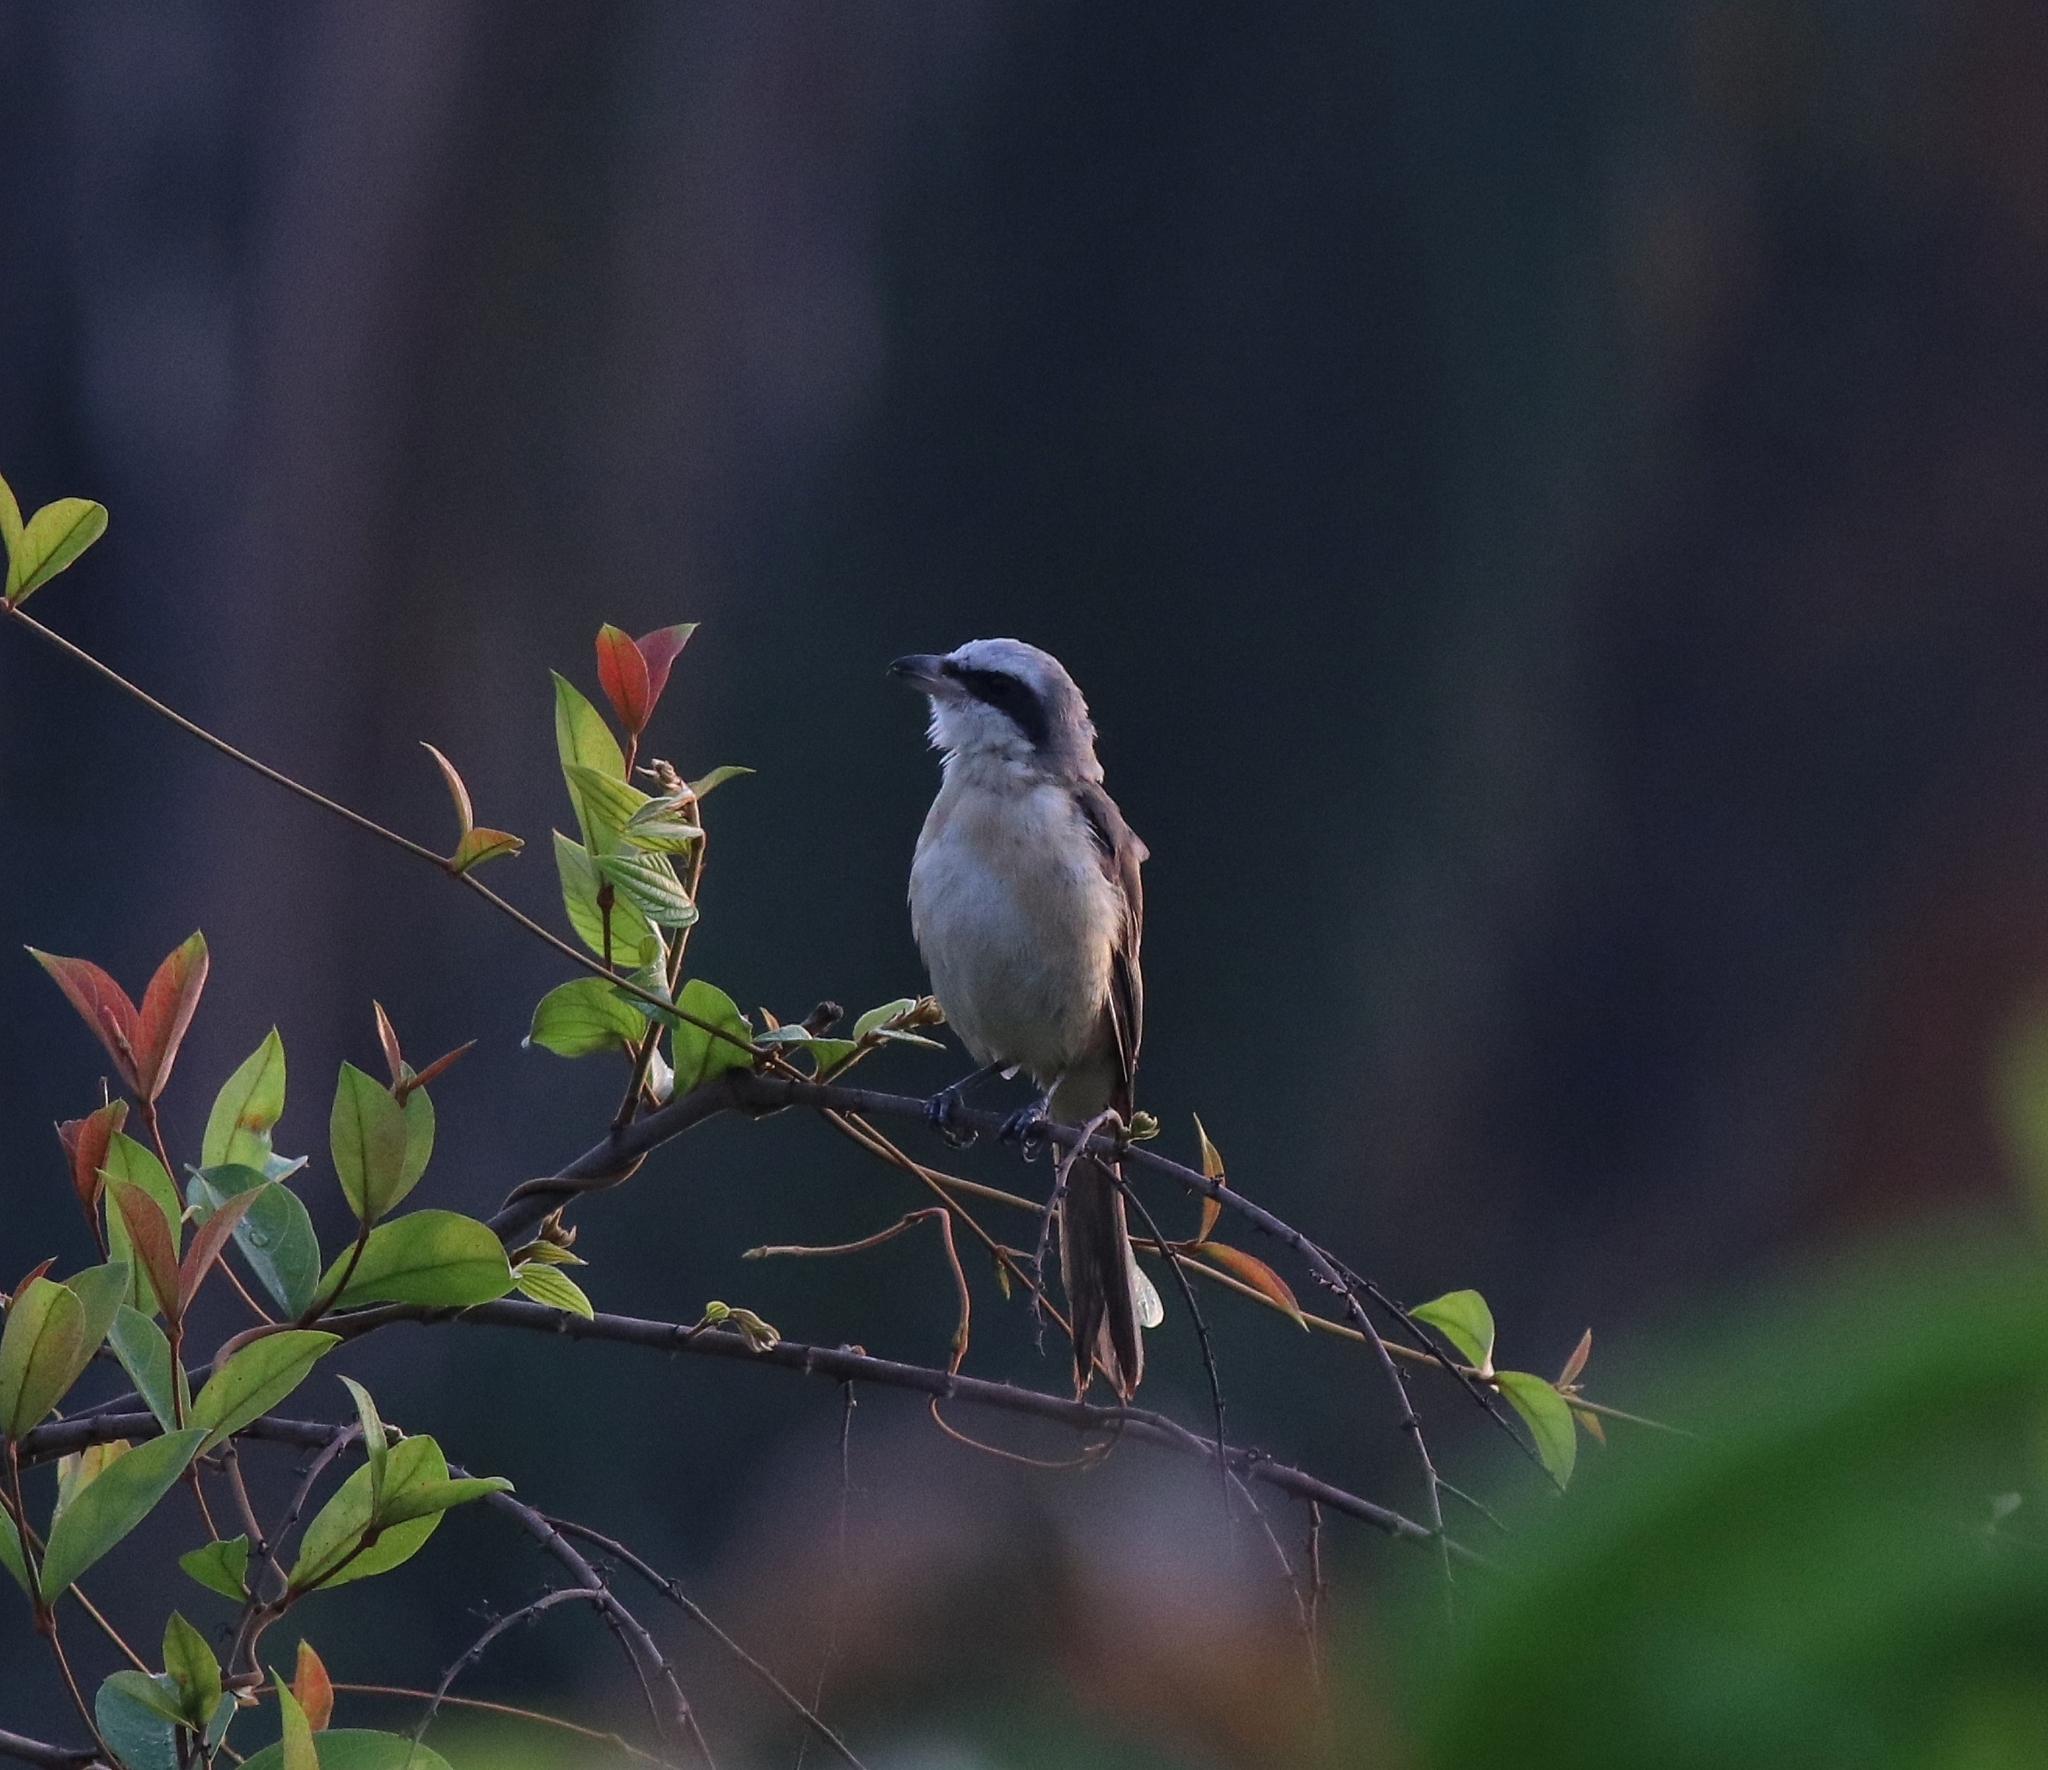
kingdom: Animalia
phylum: Chordata
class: Aves
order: Passeriformes
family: Laniidae
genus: Lanius
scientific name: Lanius cristatus
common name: Brown shrike
